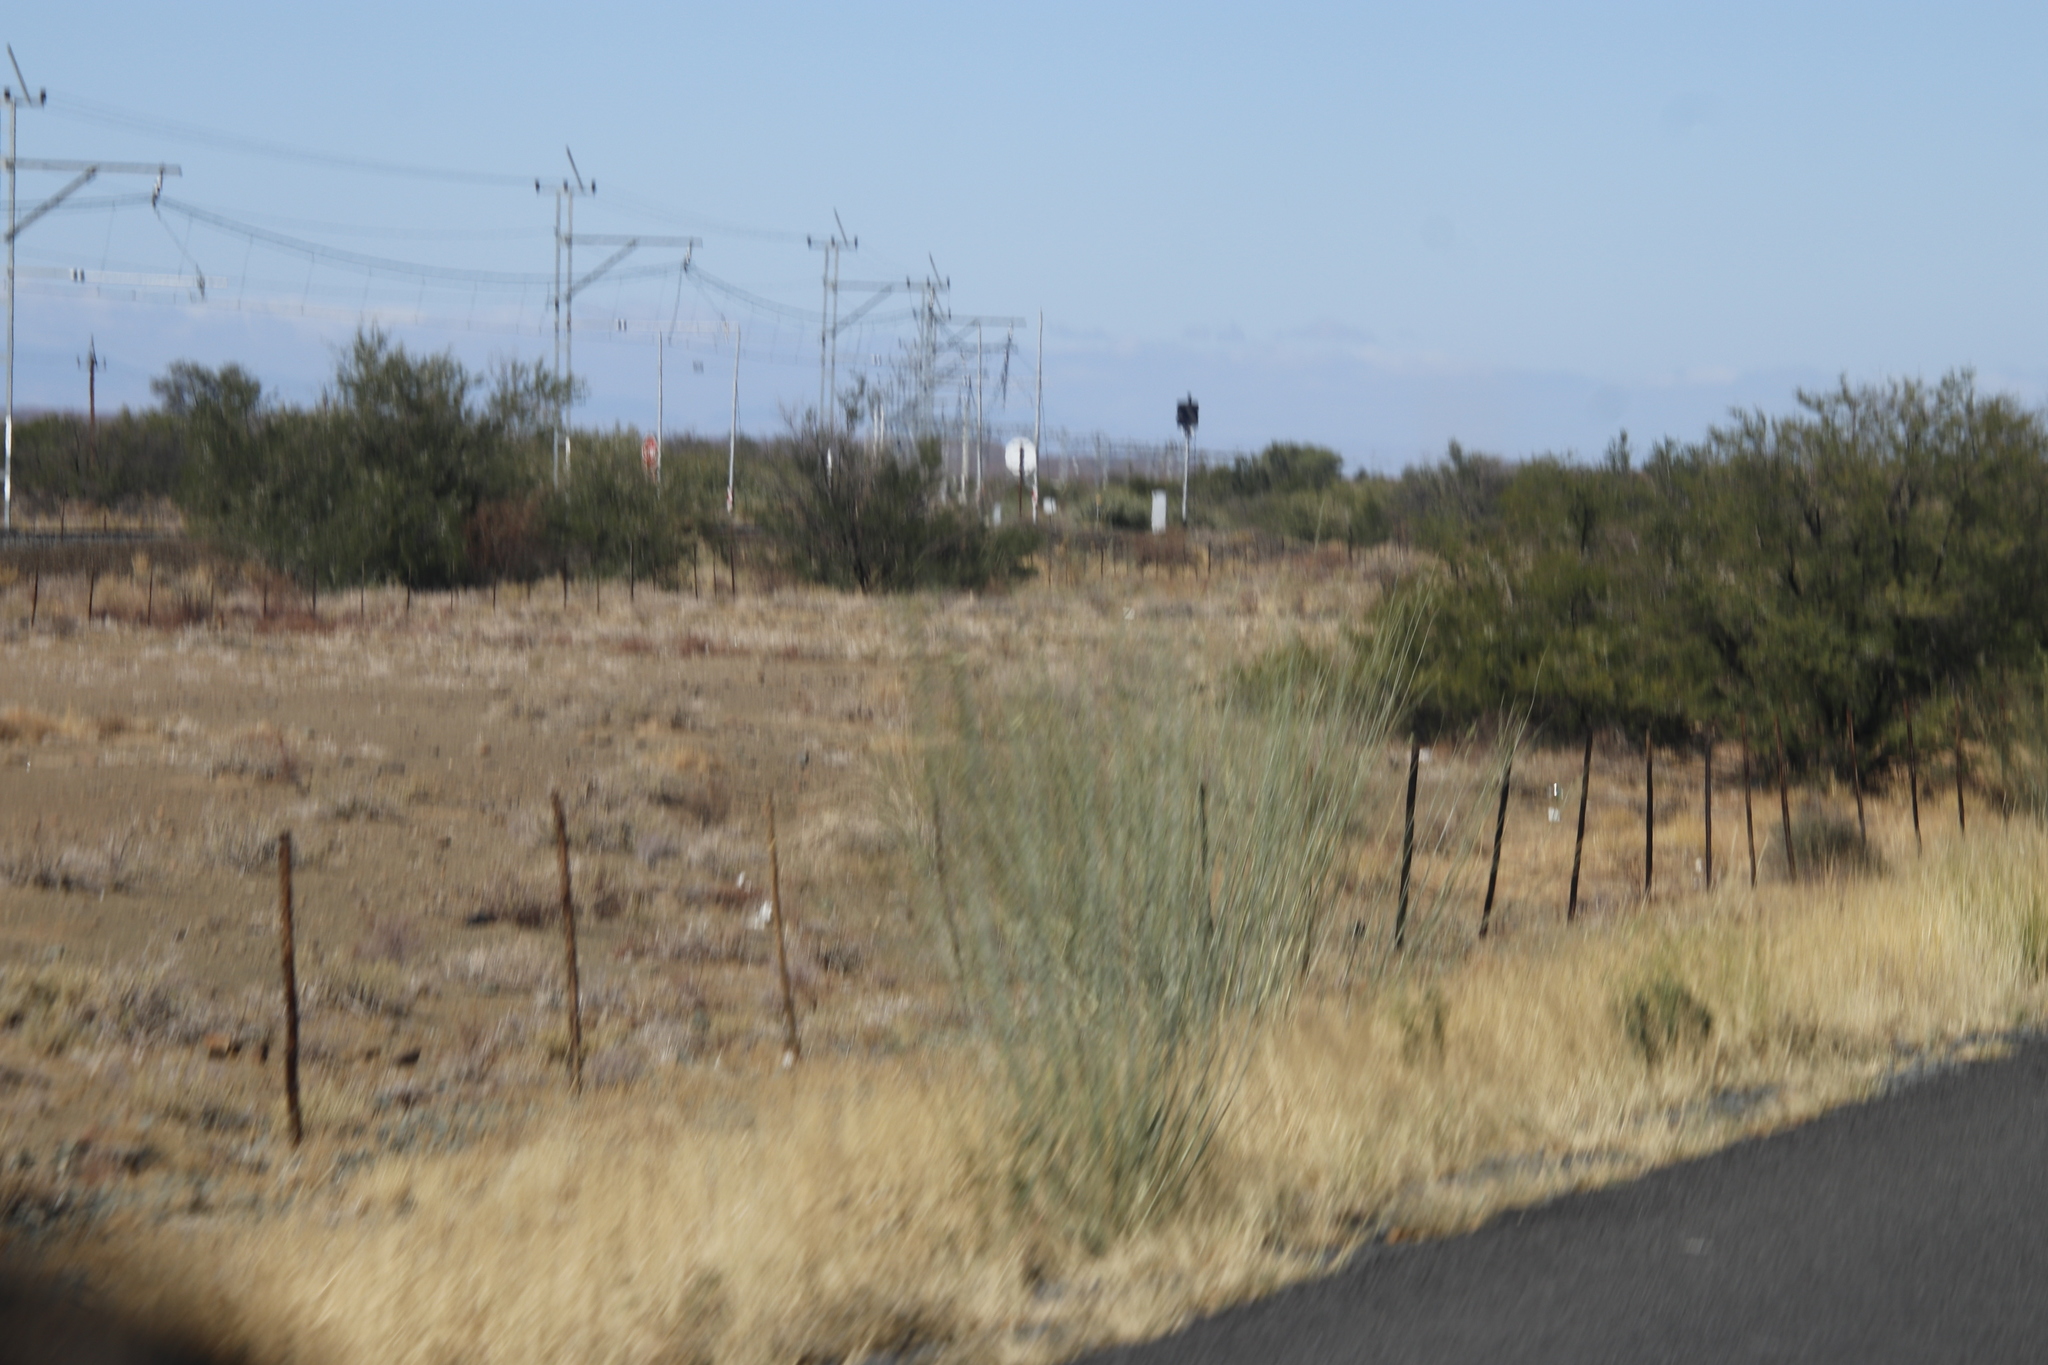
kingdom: Plantae
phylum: Tracheophyta
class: Magnoliopsida
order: Gentianales
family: Apocynaceae
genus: Gomphocarpus
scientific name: Gomphocarpus filiformis
